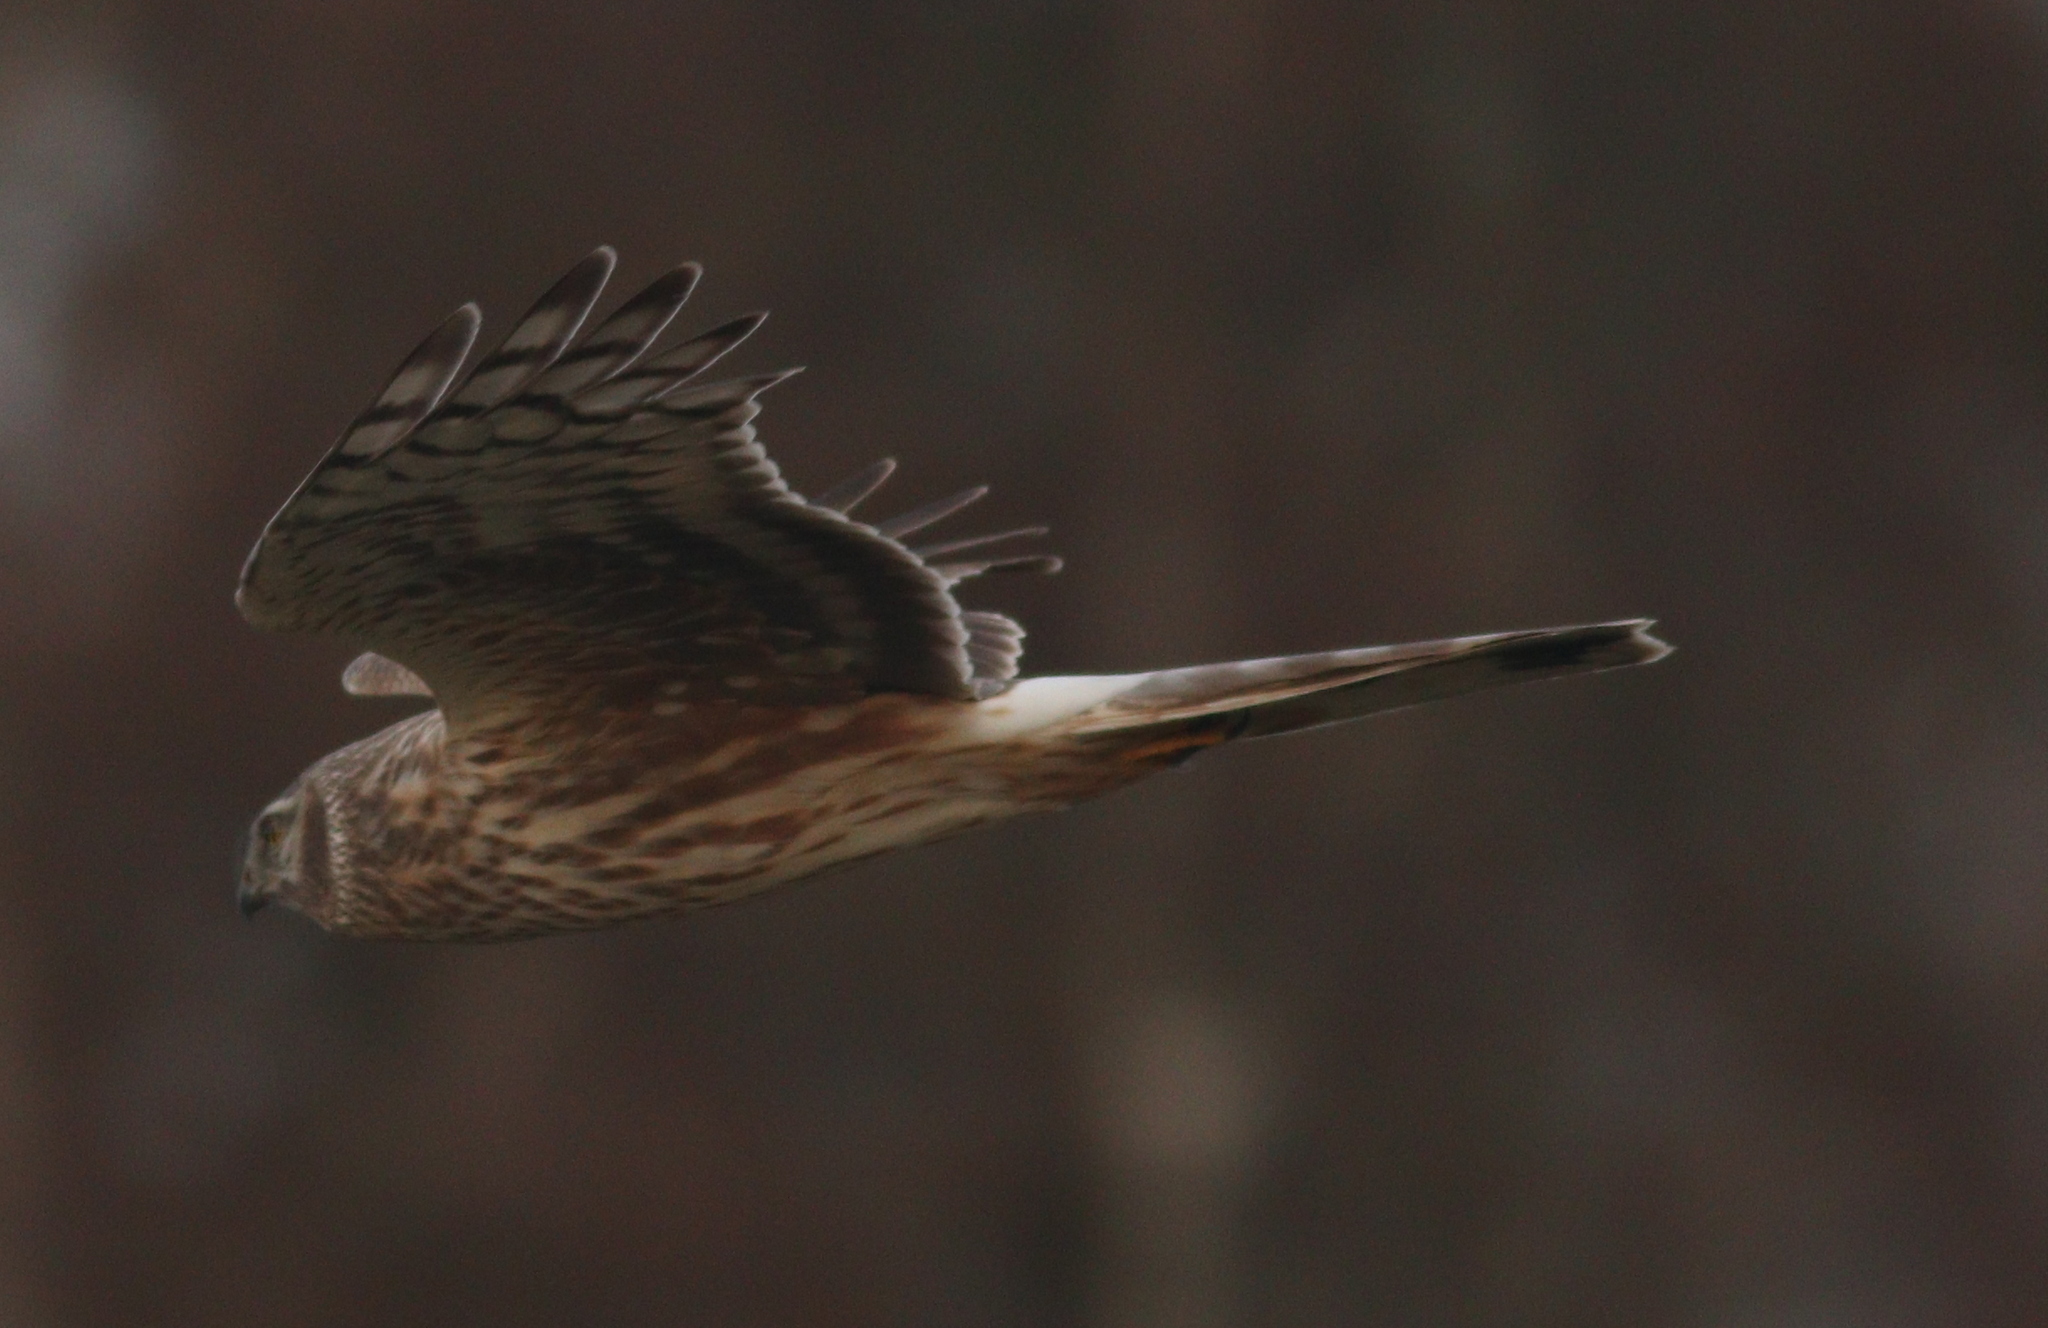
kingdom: Animalia
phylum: Chordata
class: Aves
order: Accipitriformes
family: Accipitridae
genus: Circus
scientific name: Circus cyaneus
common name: Hen harrier
